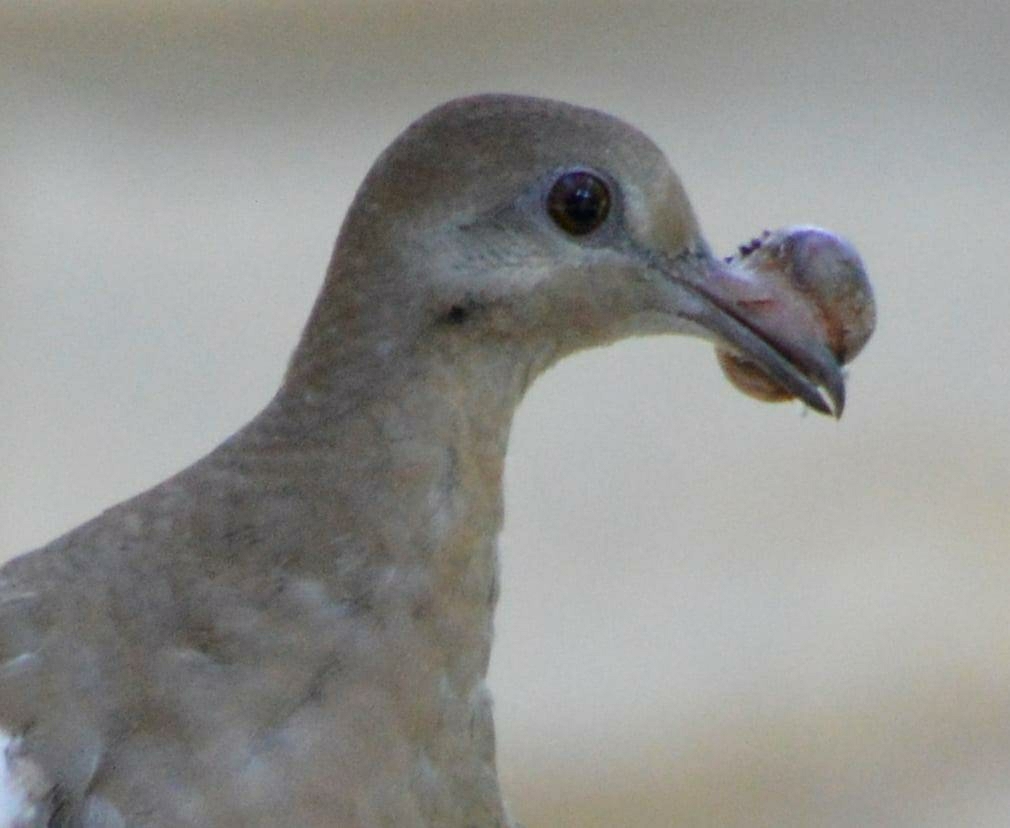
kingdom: Viruses
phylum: Nucleocytoviricota
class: Pokkesviricetes
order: Chitovirales
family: Poxviridae
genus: Avipoxvirus
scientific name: Avipoxvirus
